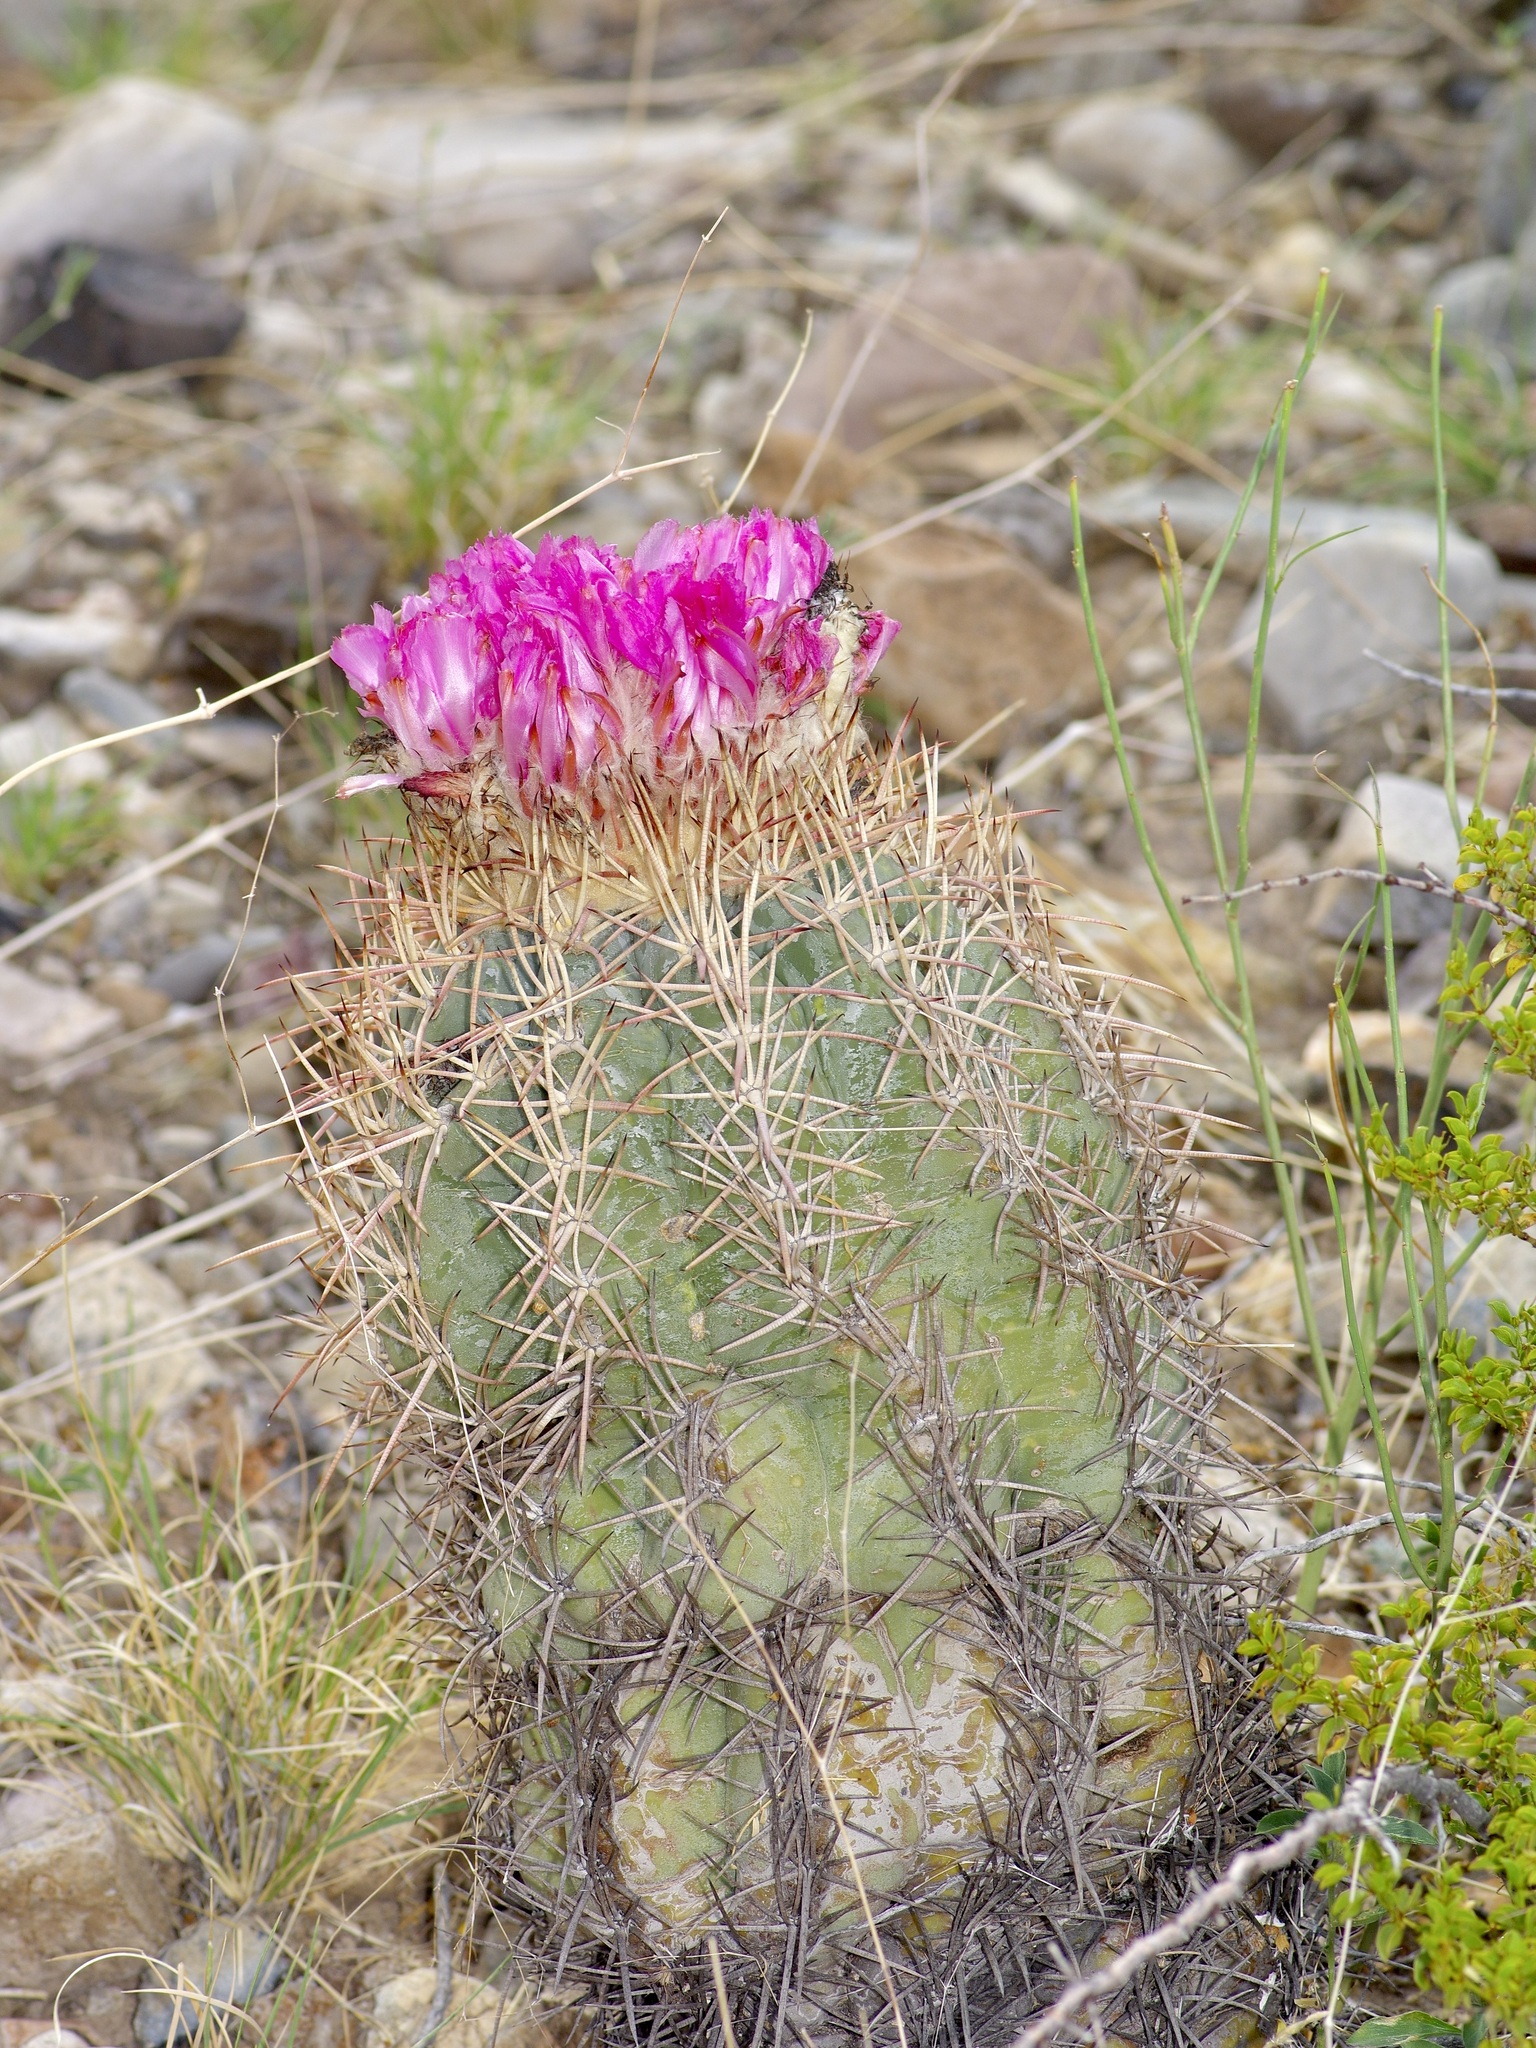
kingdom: Plantae
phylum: Tracheophyta
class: Magnoliopsida
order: Caryophyllales
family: Cactaceae
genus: Echinocactus
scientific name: Echinocactus horizonthalonius
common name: Devilshead
